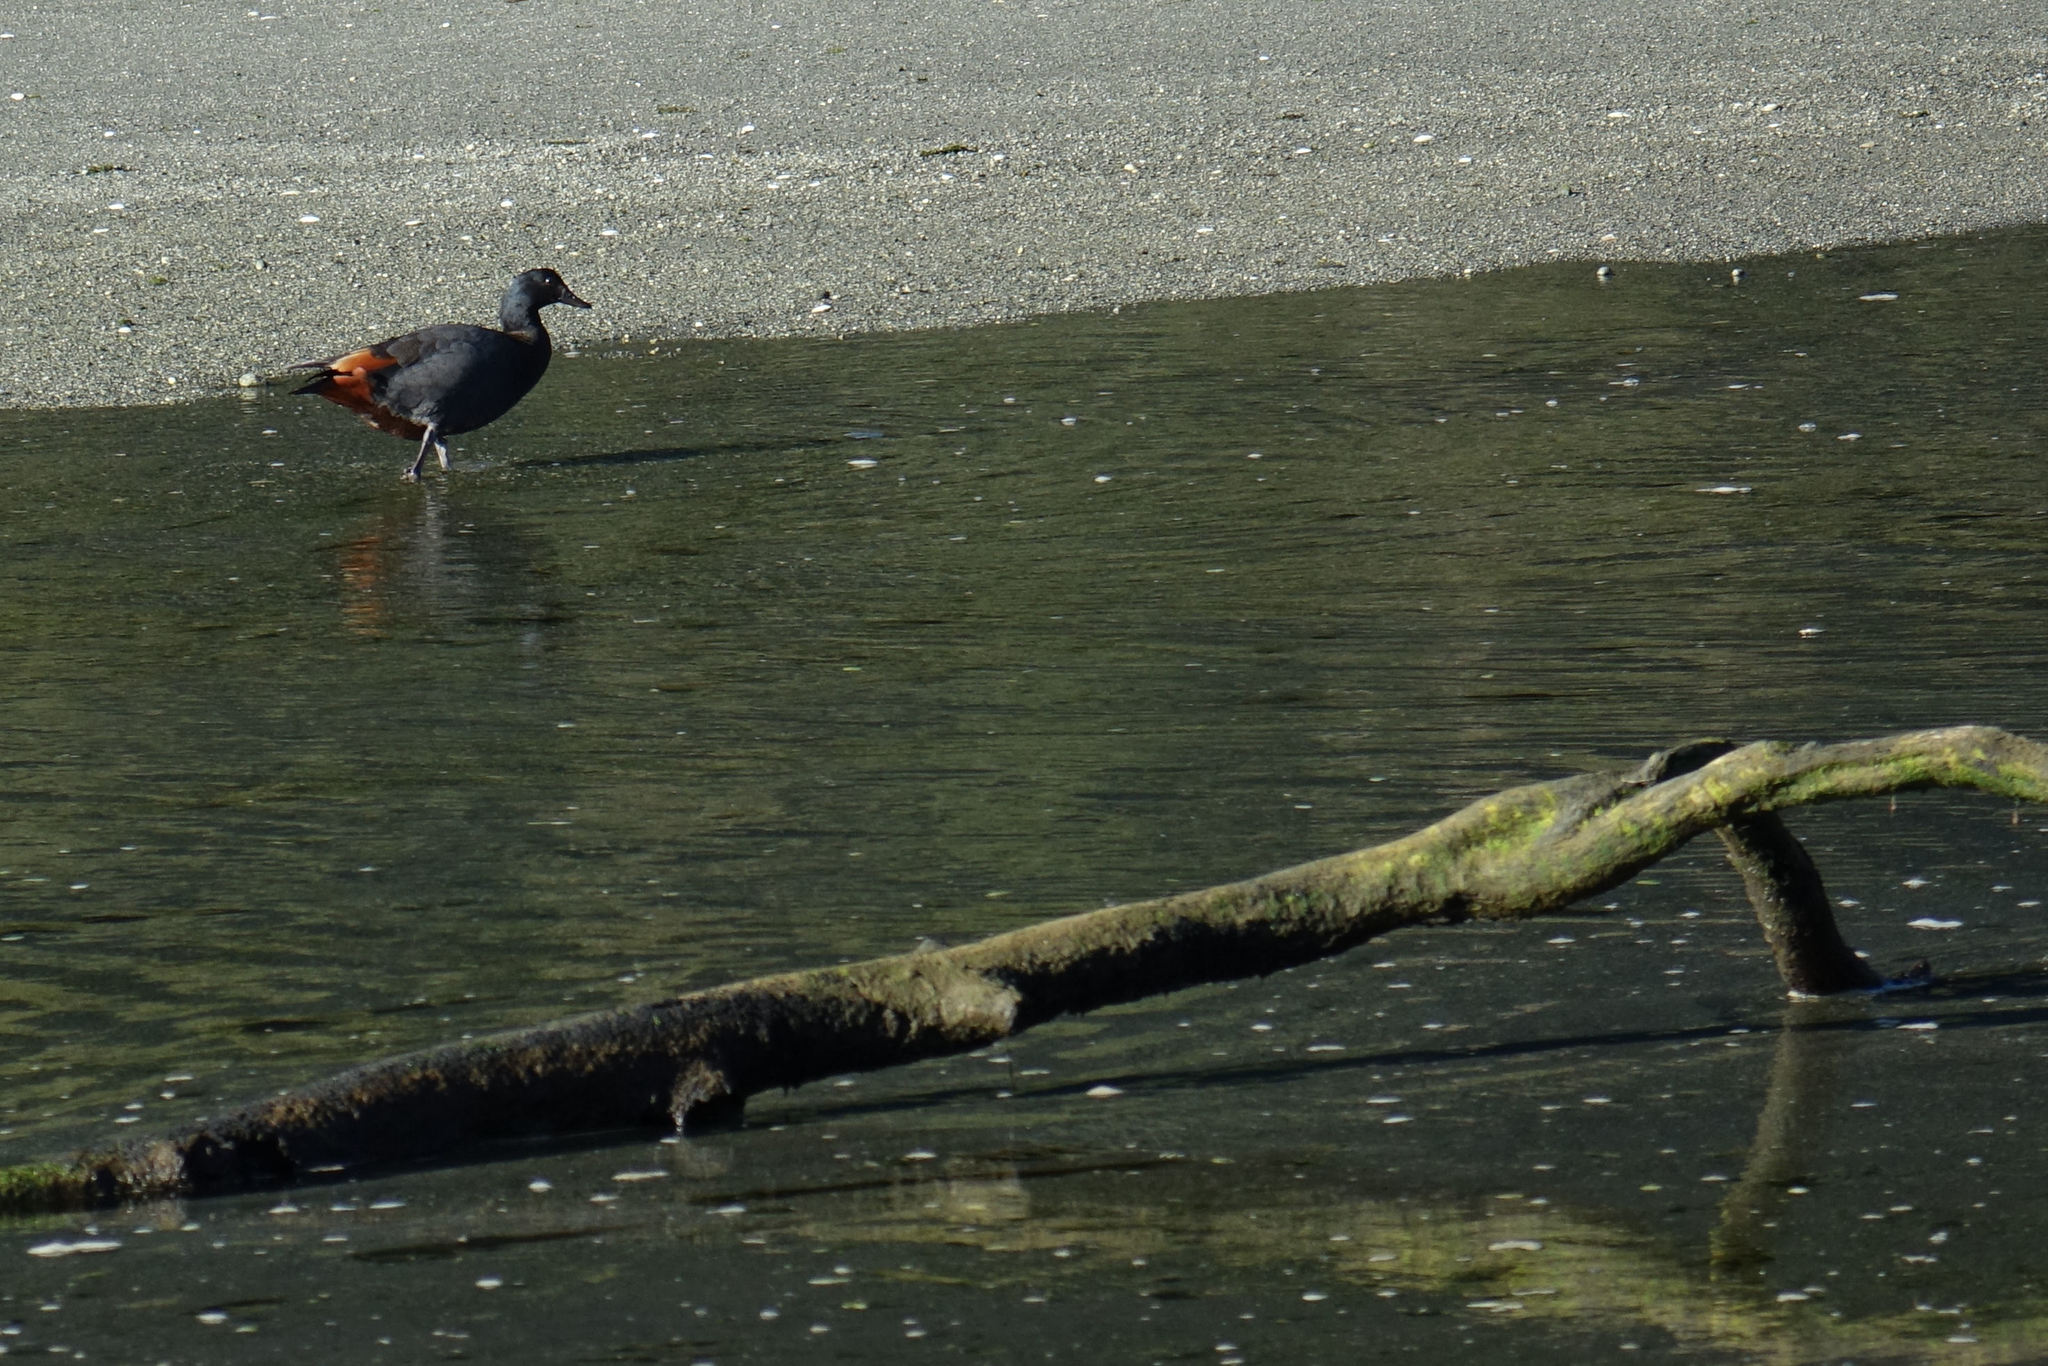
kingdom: Animalia
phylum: Chordata
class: Aves
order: Anseriformes
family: Anatidae
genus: Tadorna
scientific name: Tadorna variegata
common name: Paradise shelduck
